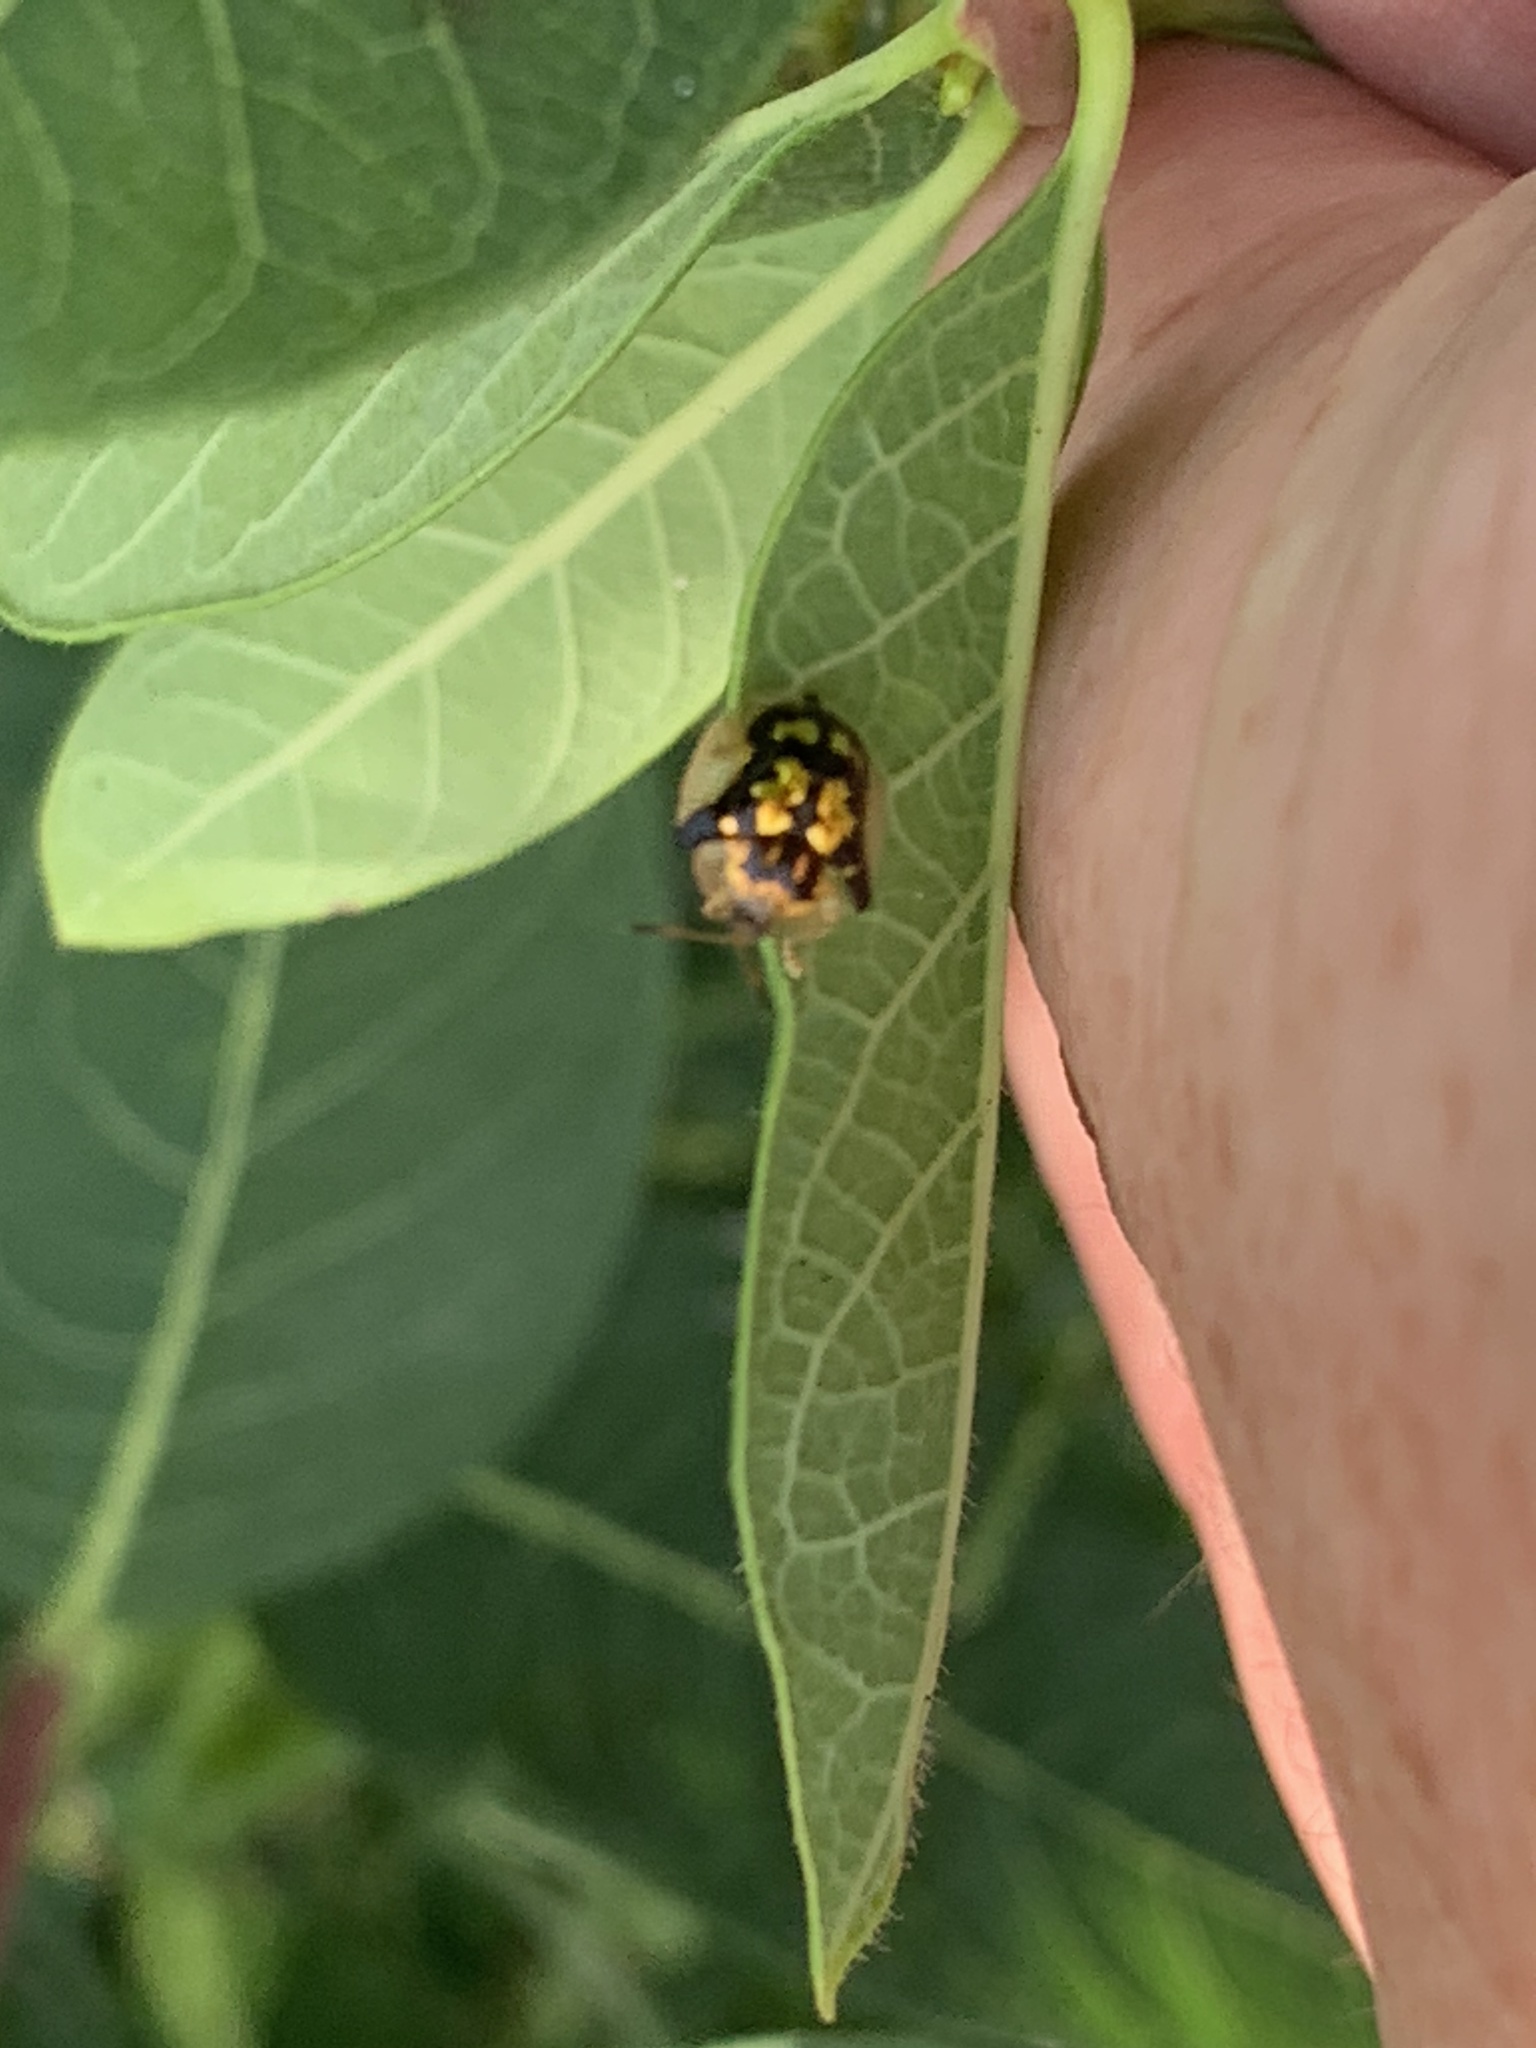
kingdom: Animalia
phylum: Arthropoda
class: Insecta
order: Coleoptera
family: Chrysomelidae
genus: Deloyala
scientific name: Deloyala guttata
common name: Mottled tortoise beetle
